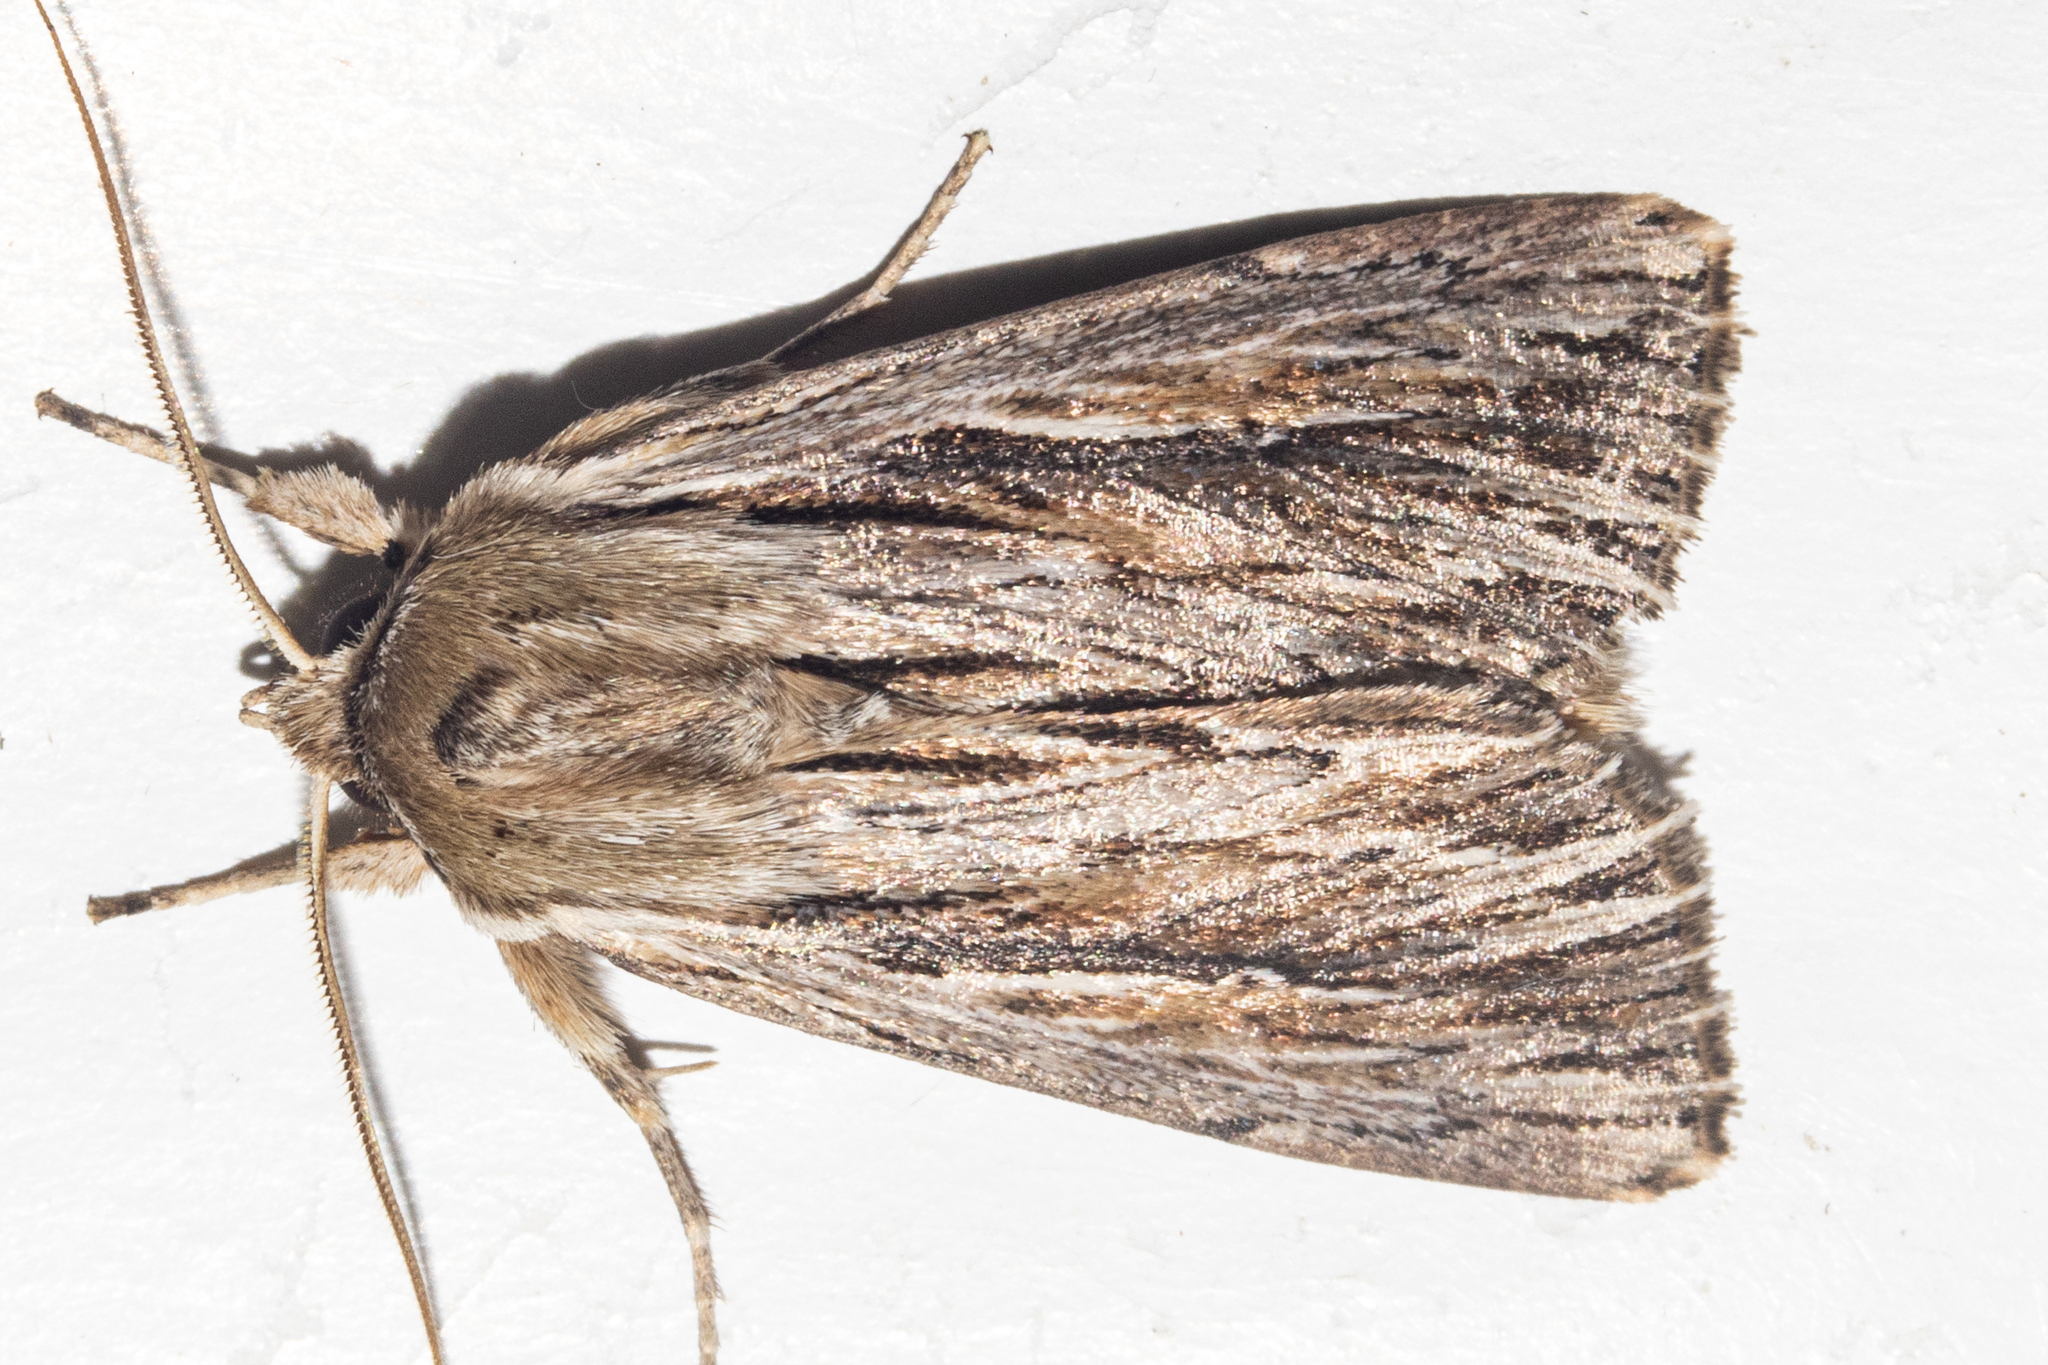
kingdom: Animalia
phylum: Arthropoda
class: Insecta
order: Lepidoptera
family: Noctuidae
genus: Persectania
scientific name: Persectania aversa
